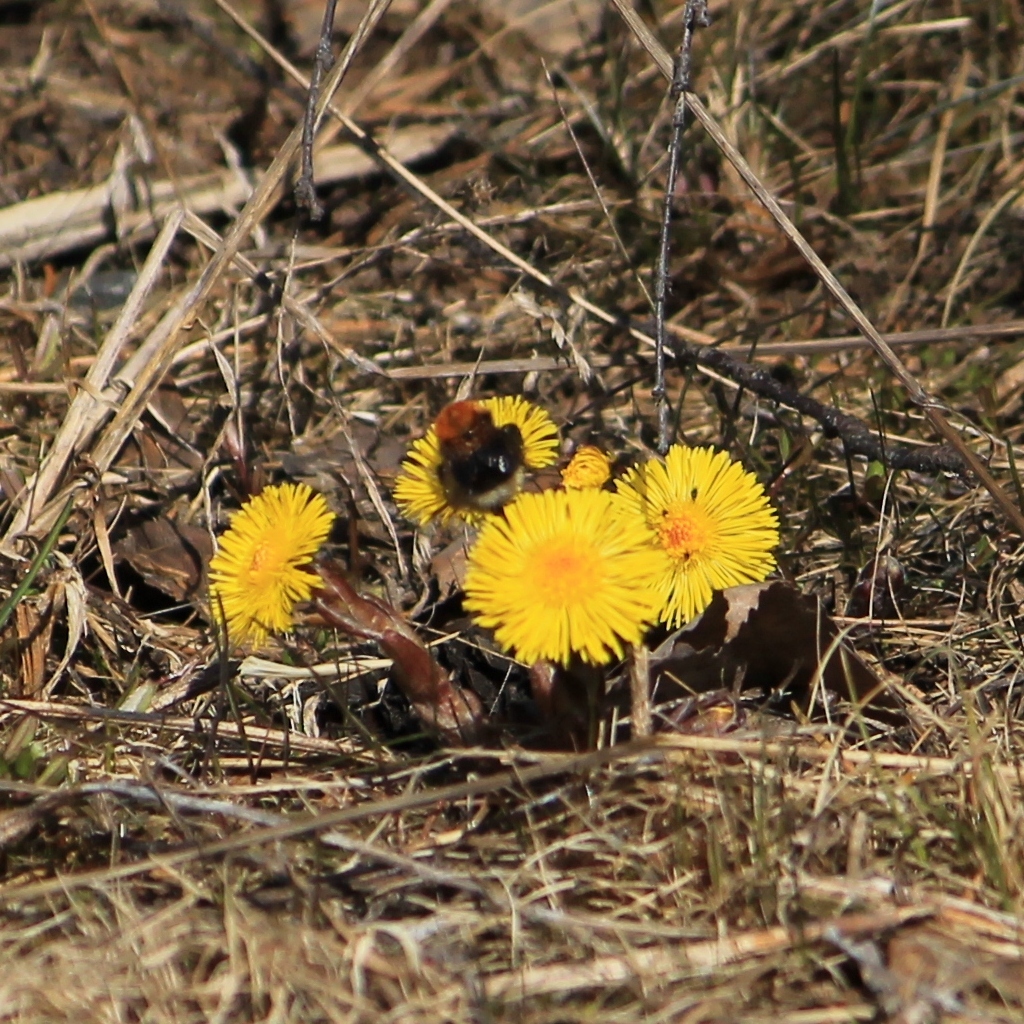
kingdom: Animalia
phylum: Arthropoda
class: Insecta
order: Hymenoptera
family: Apidae
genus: Bombus
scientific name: Bombus hypnorum
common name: New garden bumblebee
